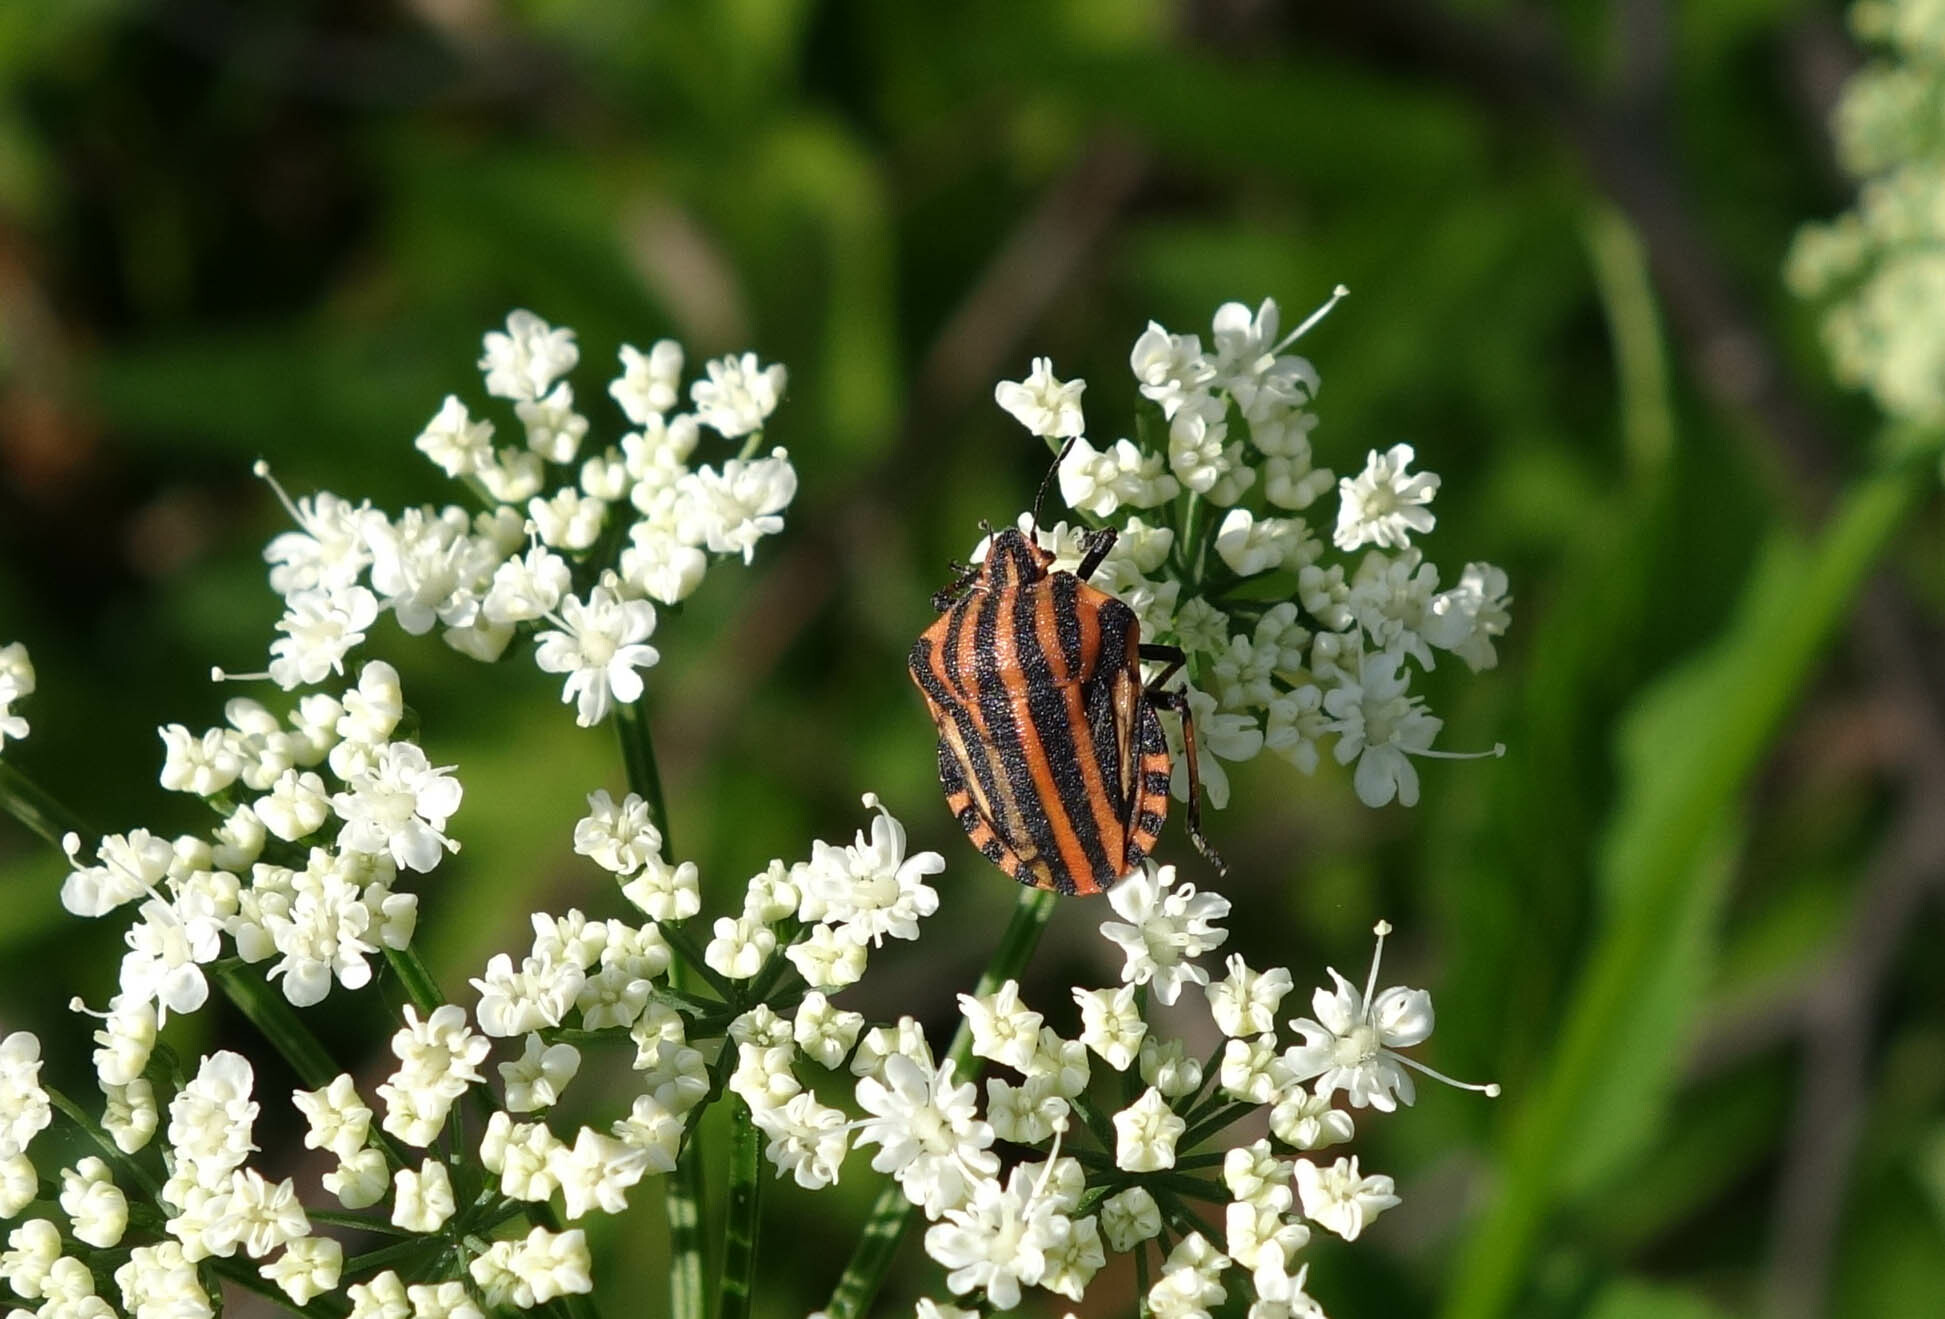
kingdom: Animalia
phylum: Arthropoda
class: Insecta
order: Hemiptera
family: Pentatomidae
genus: Graphosoma
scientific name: Graphosoma italicum
